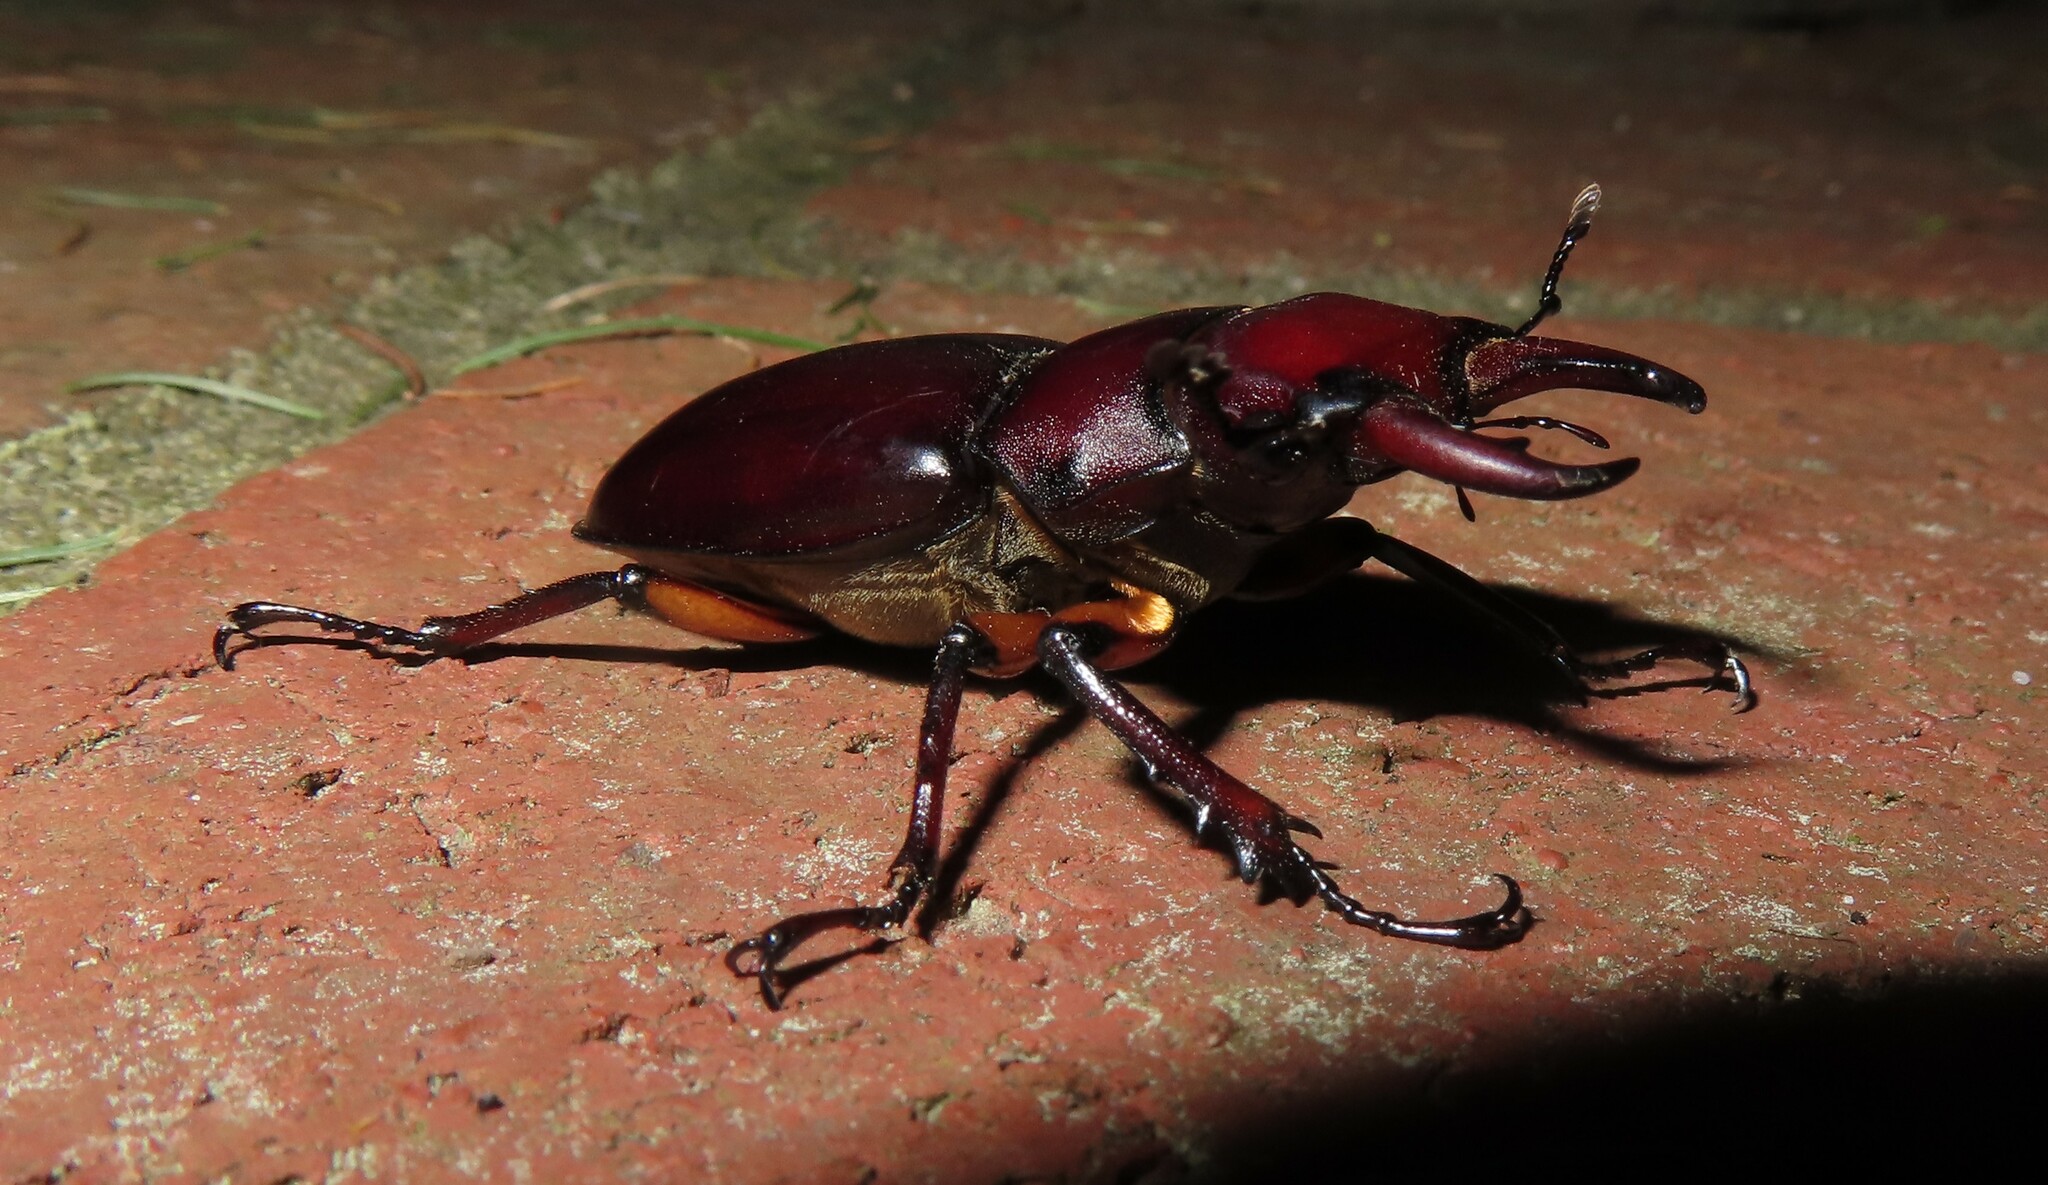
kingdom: Animalia
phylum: Arthropoda
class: Insecta
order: Coleoptera
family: Lucanidae
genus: Lucanus
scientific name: Lucanus capreolus
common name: Stag beetle
